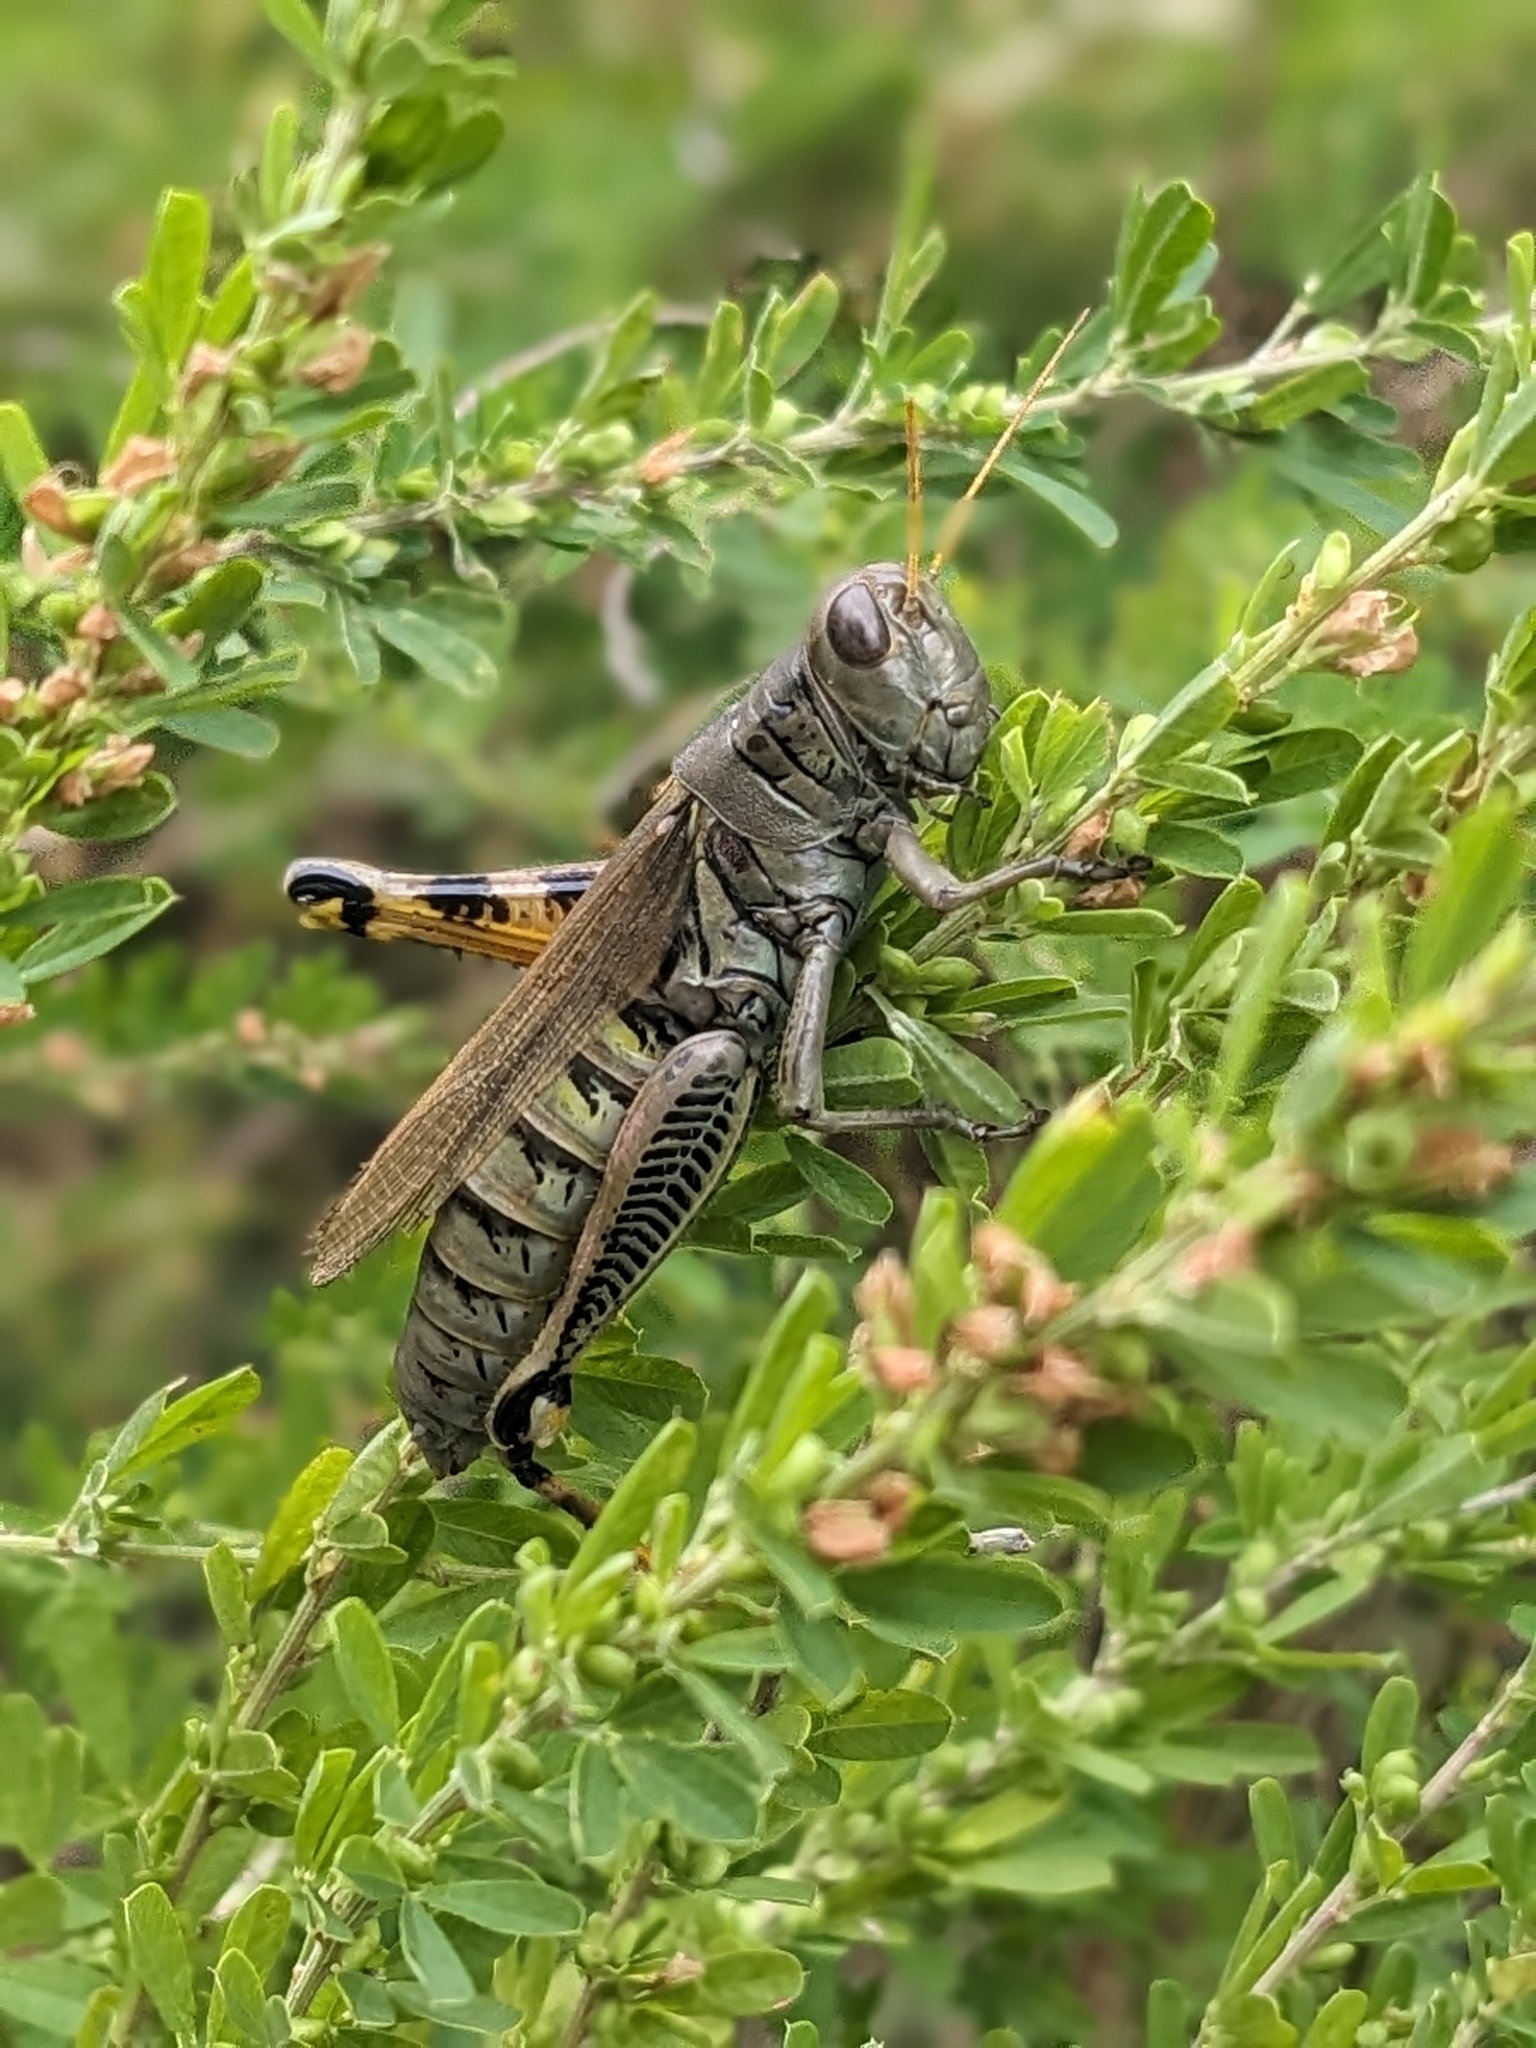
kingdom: Animalia
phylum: Arthropoda
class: Insecta
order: Orthoptera
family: Acrididae
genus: Melanoplus
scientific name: Melanoplus differentialis
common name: Differential grasshopper
